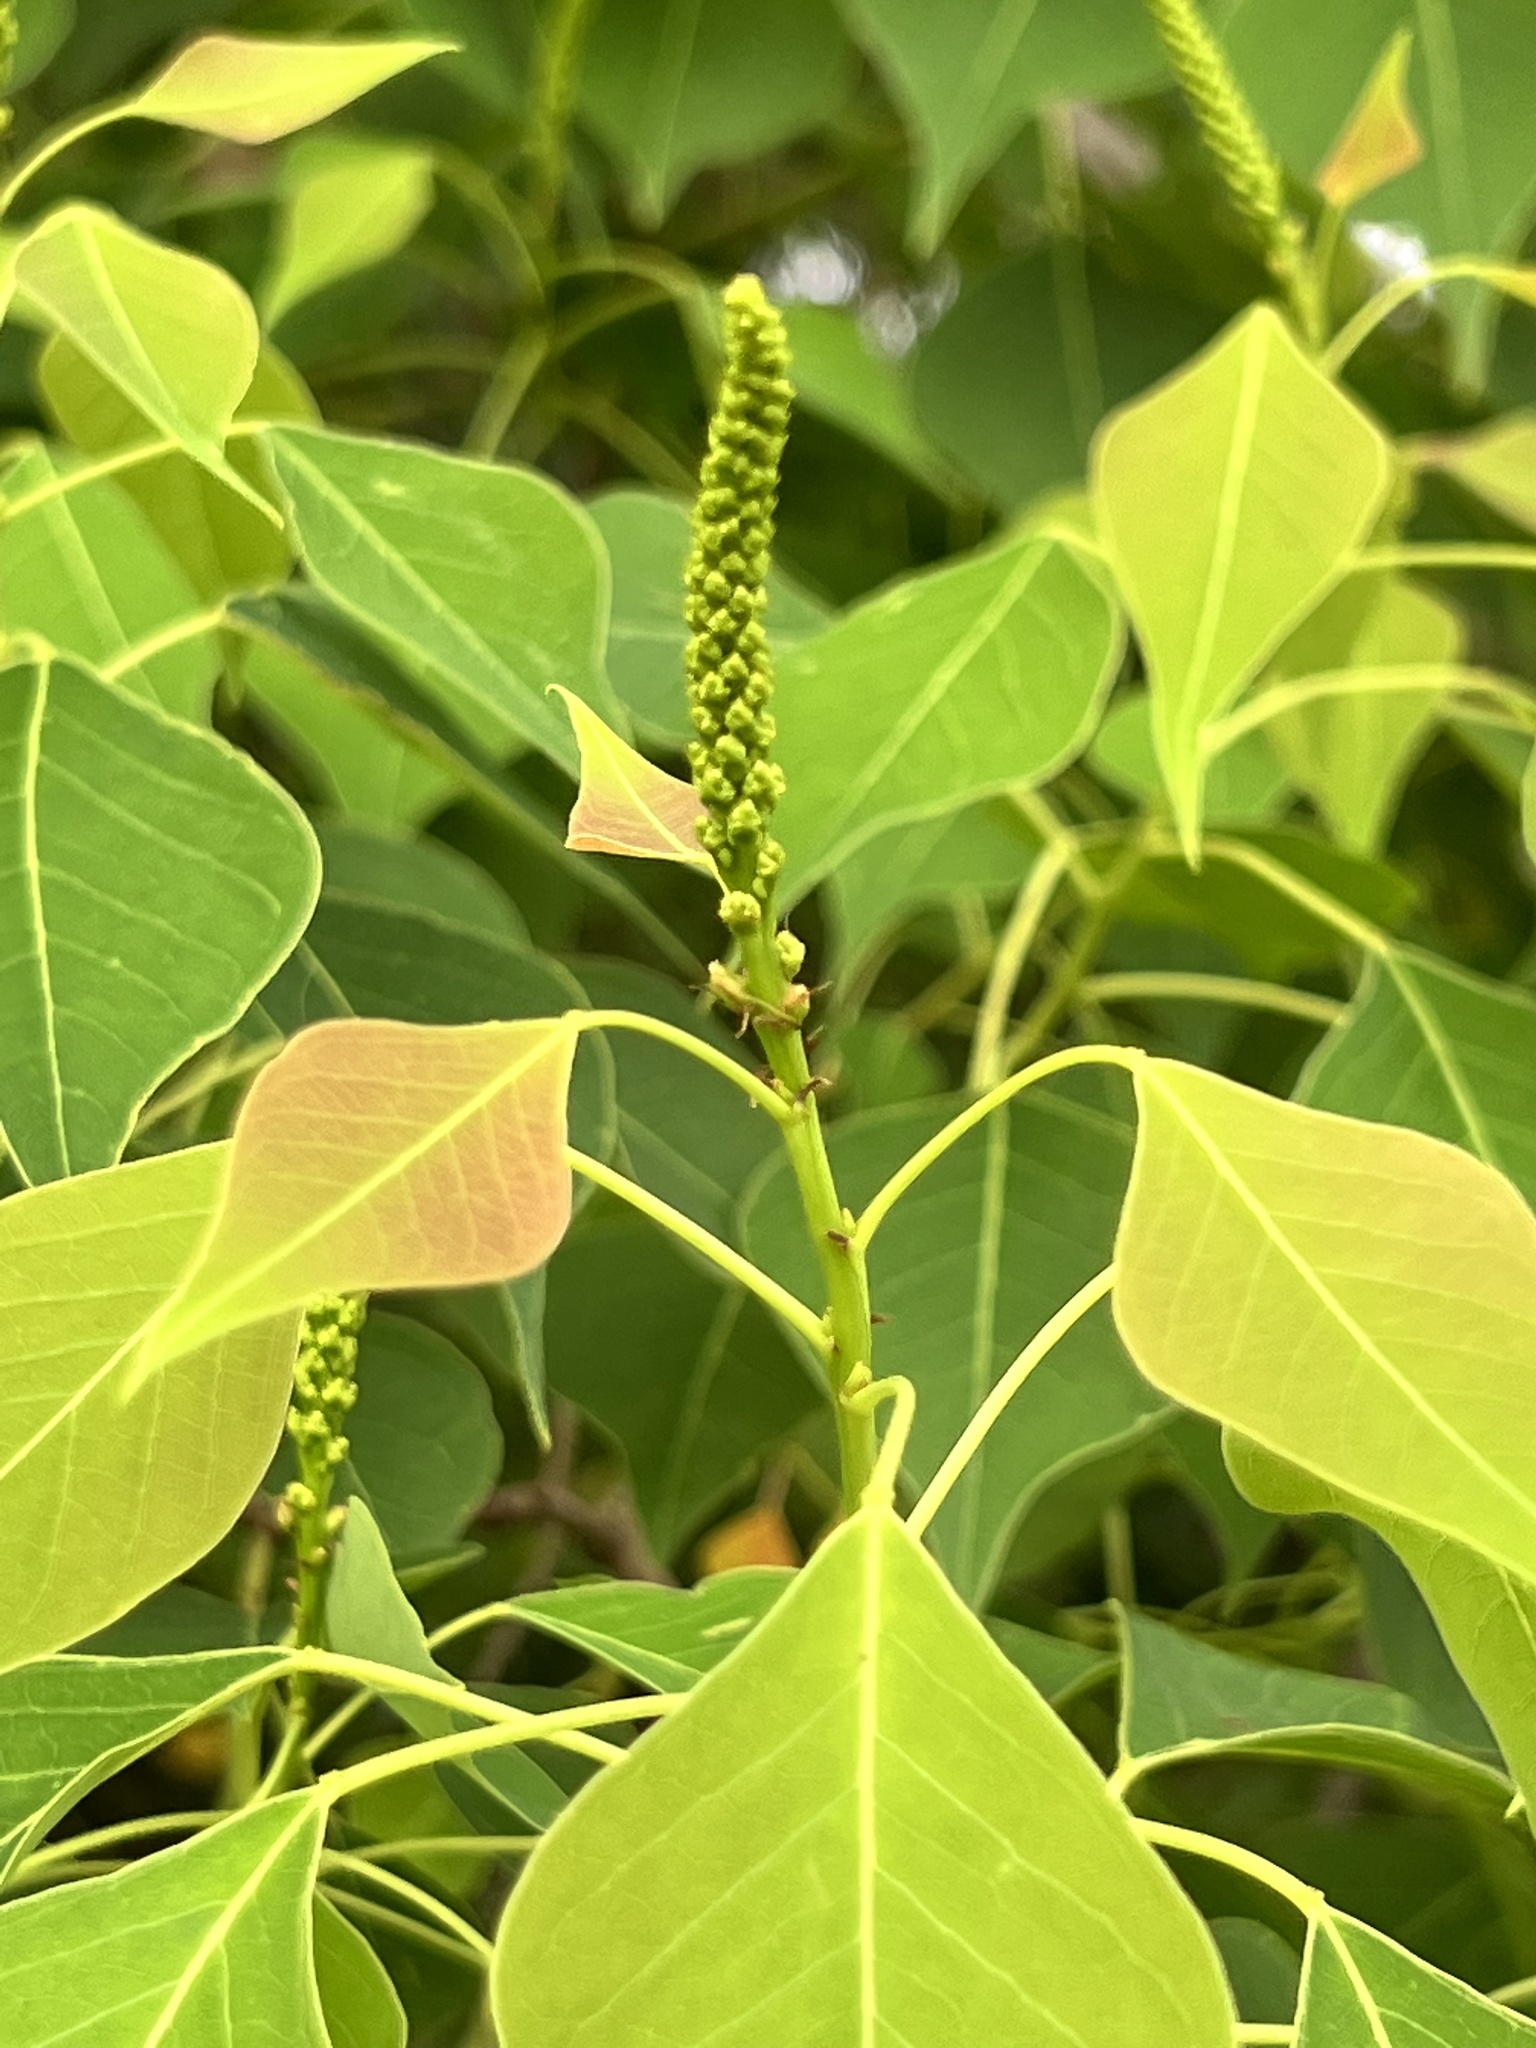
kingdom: Plantae
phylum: Tracheophyta
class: Magnoliopsida
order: Malpighiales
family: Euphorbiaceae
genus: Triadica
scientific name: Triadica sebifera
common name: Chinese tallow
